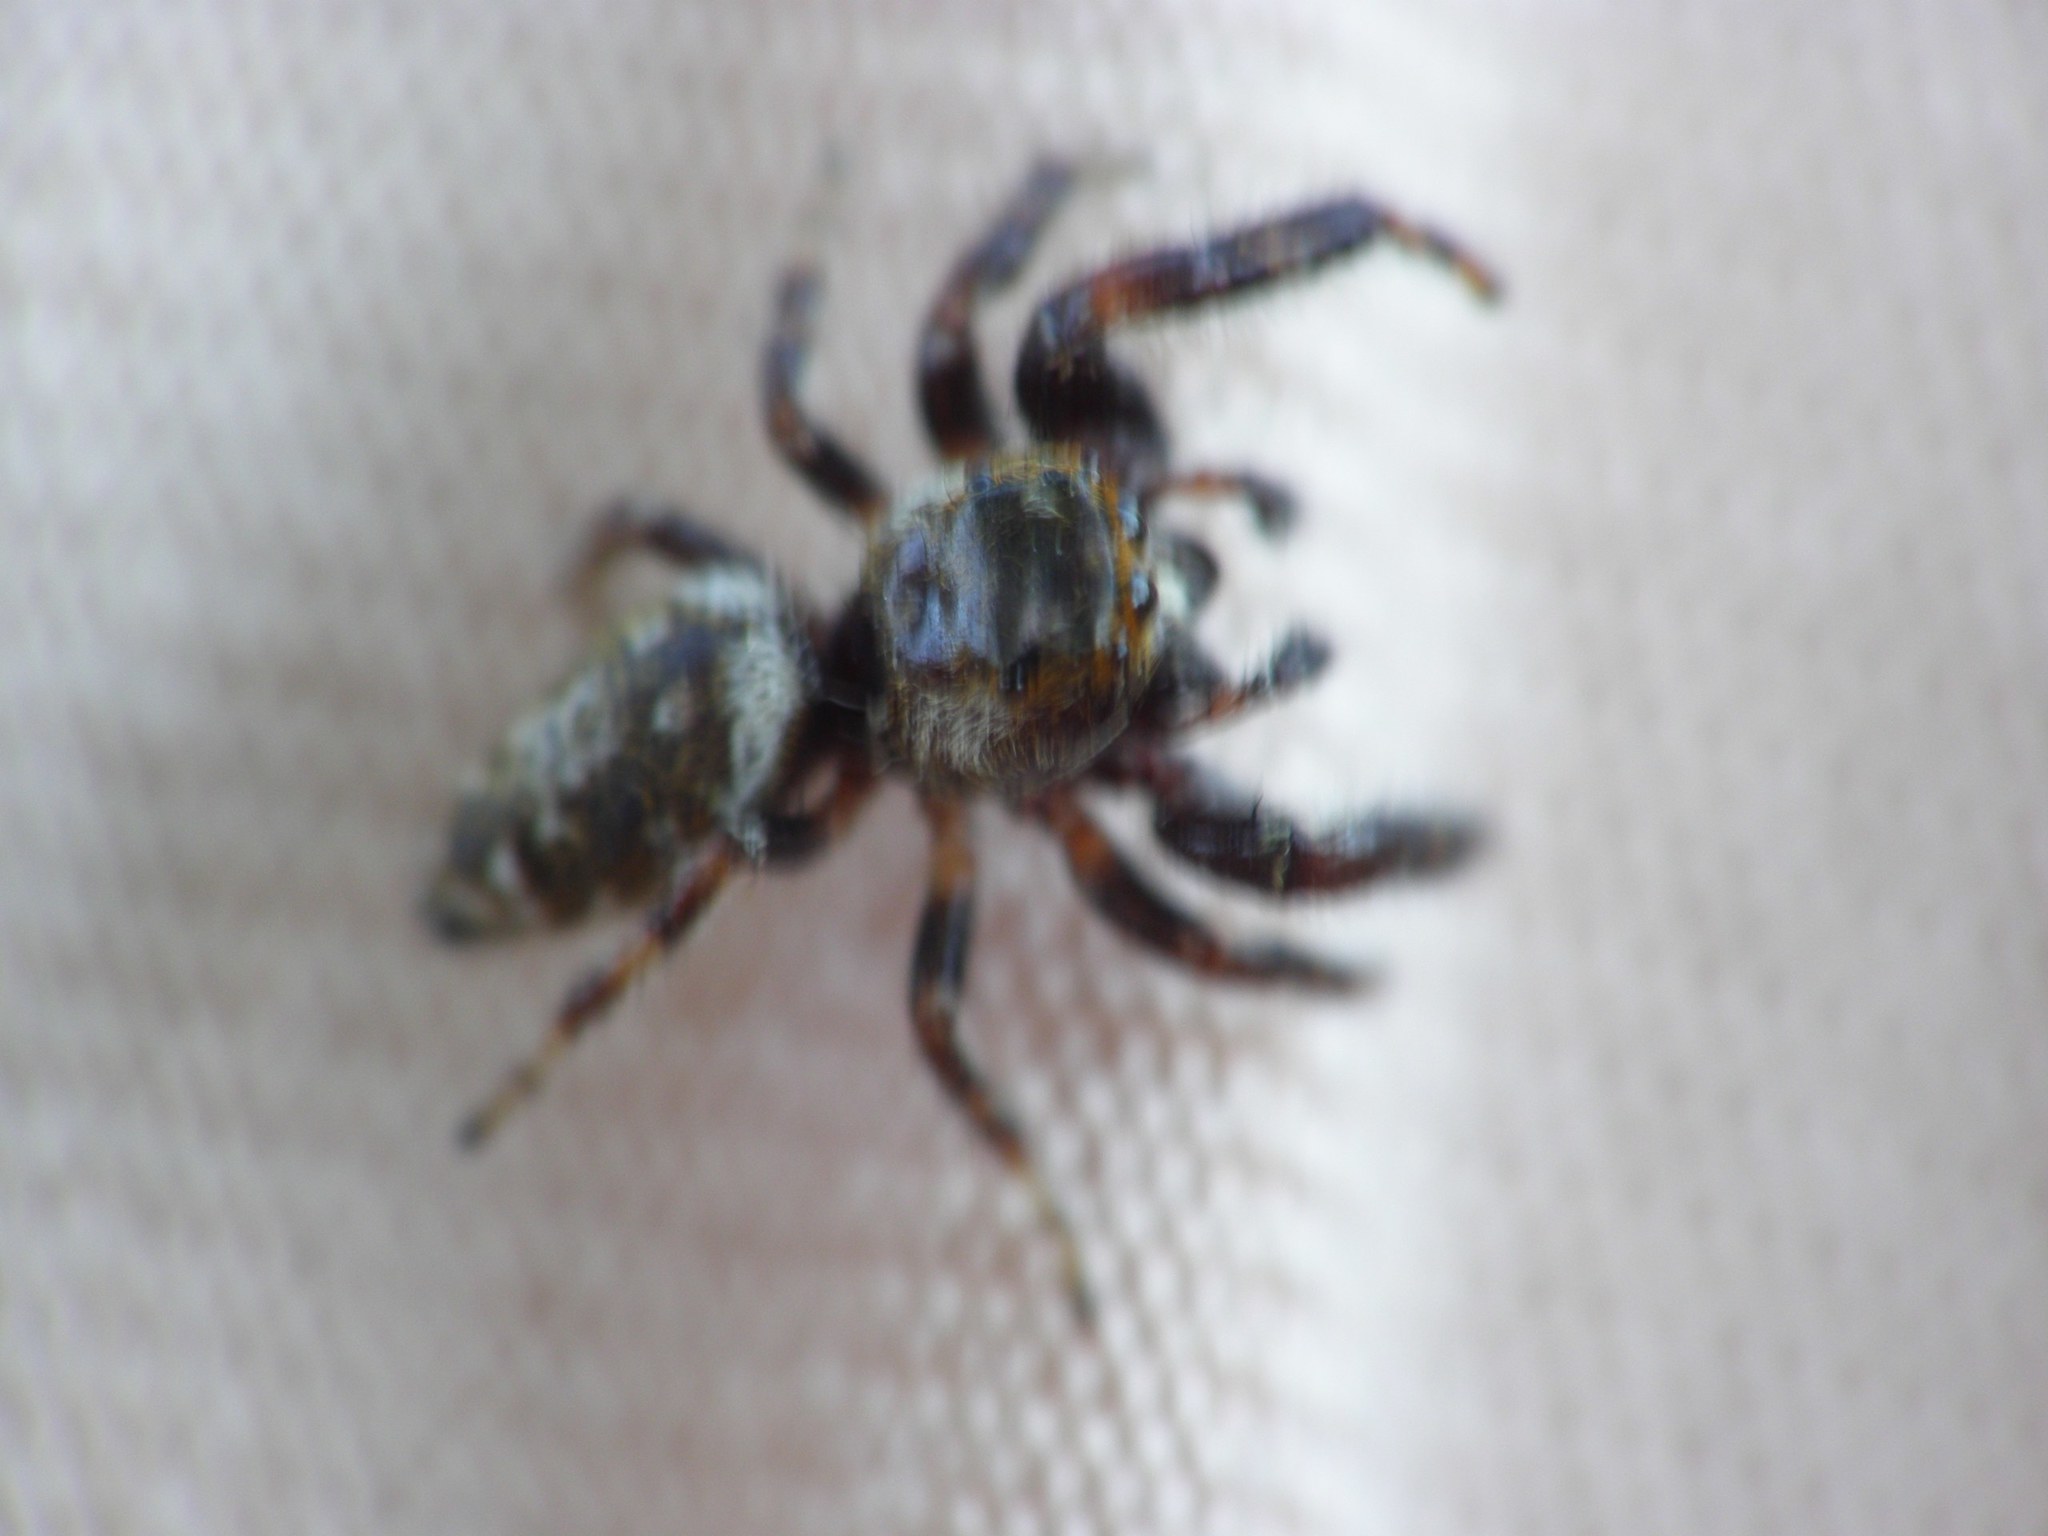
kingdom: Animalia
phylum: Arthropoda
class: Arachnida
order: Araneae
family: Salticidae
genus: Macaroeris
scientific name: Macaroeris nidicolens
